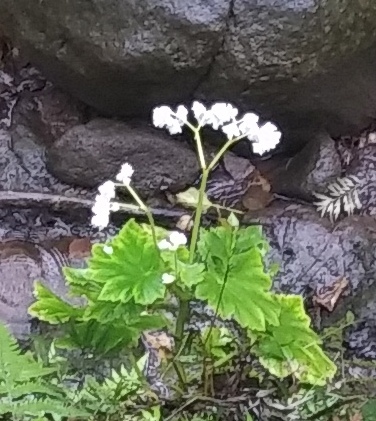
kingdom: Plantae
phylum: Tracheophyta
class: Magnoliopsida
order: Cucurbitales
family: Begoniaceae
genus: Hillebrandia
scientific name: Hillebrandia sandwicensis
